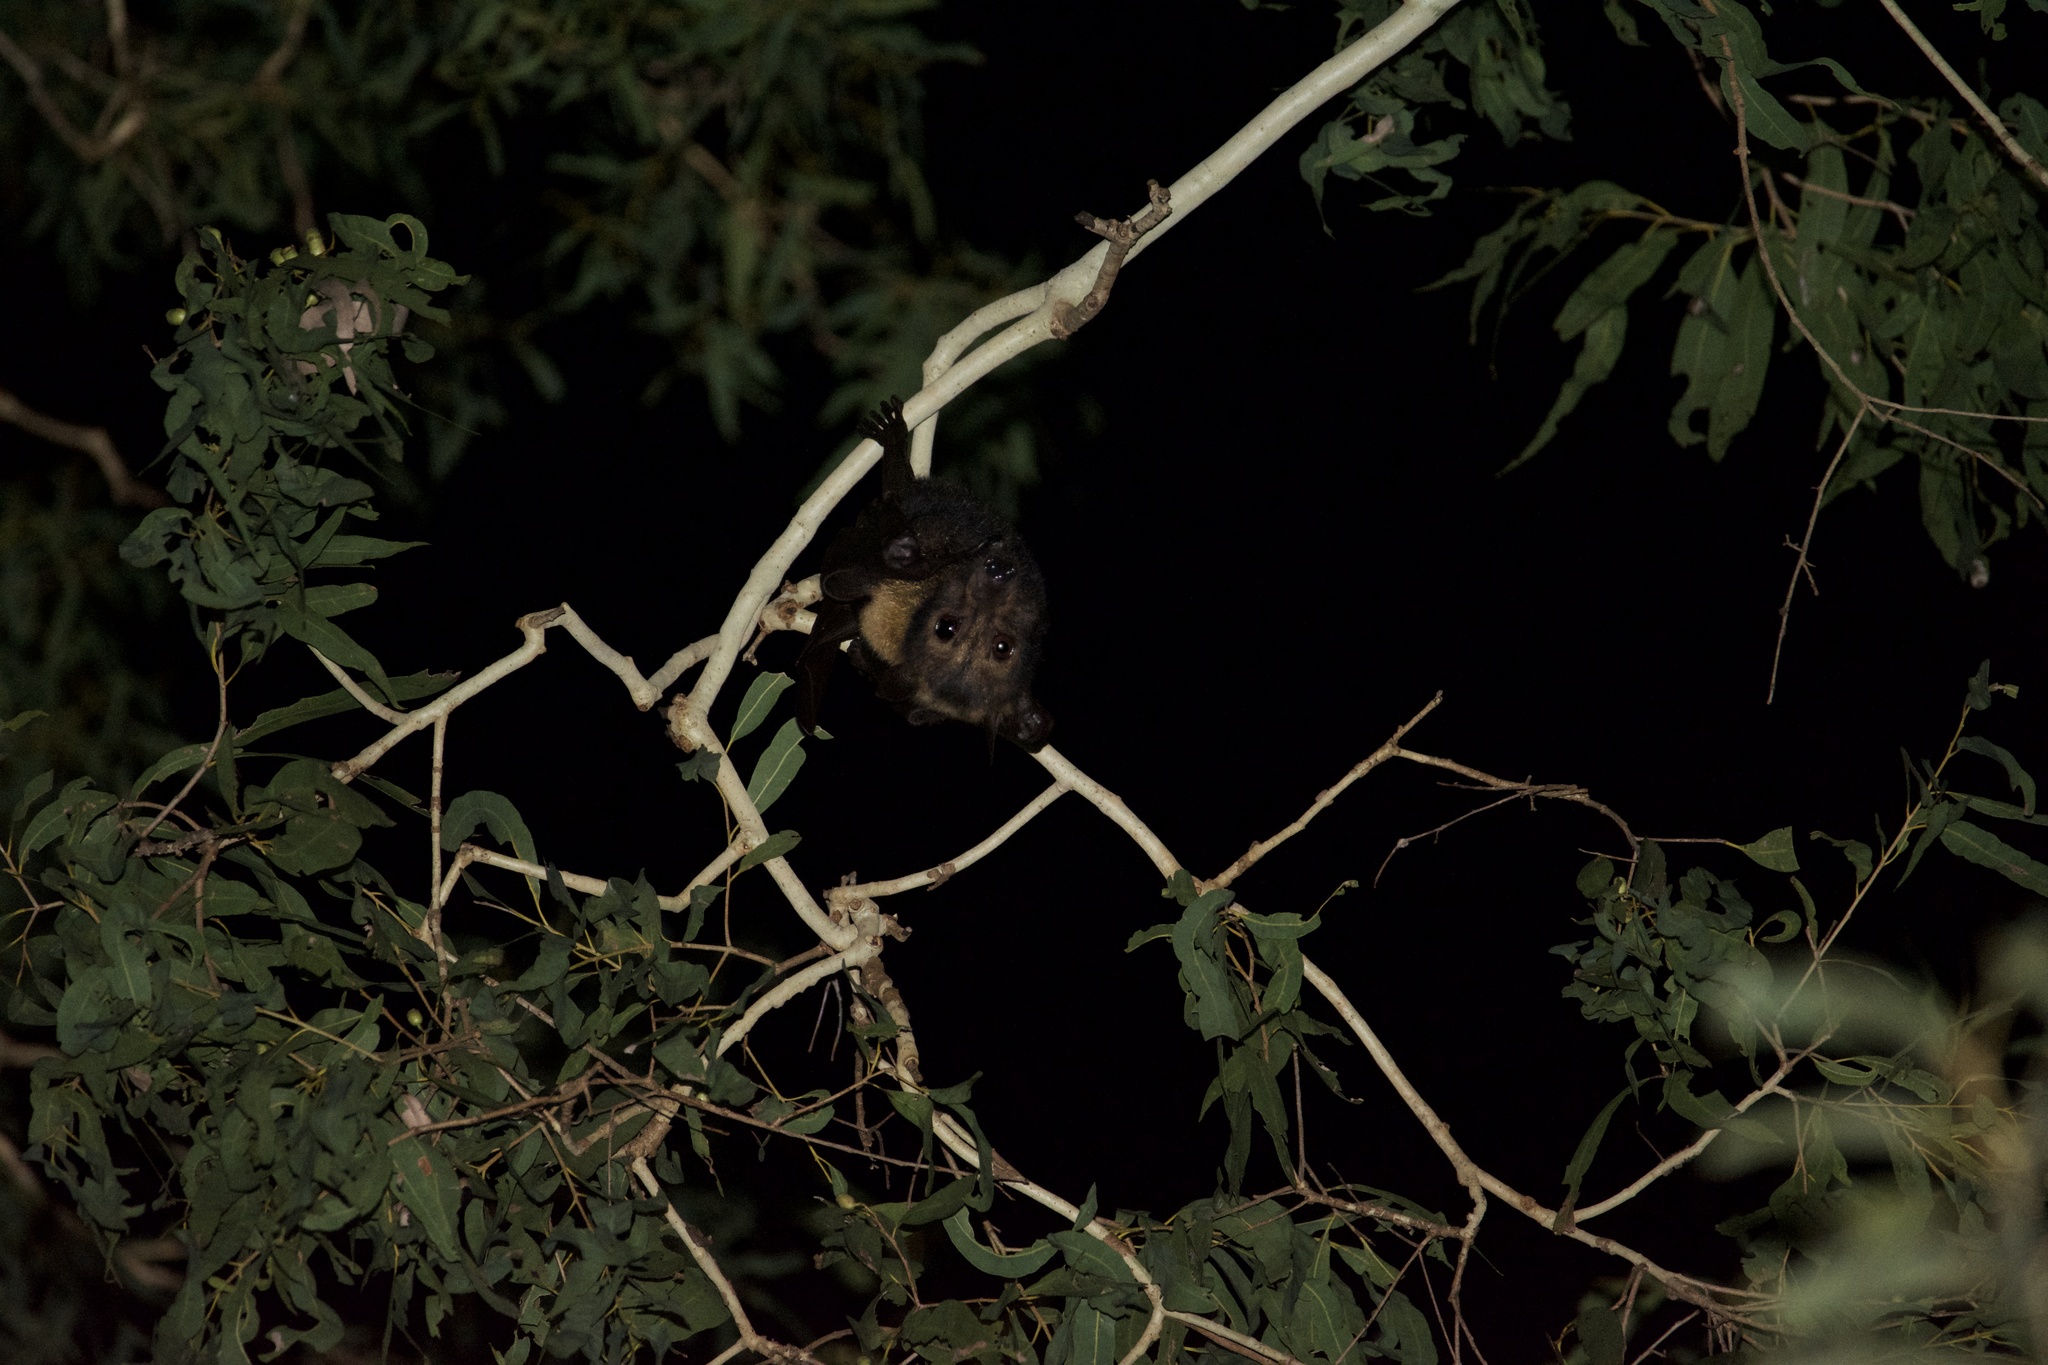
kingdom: Animalia
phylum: Chordata
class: Mammalia
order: Chiroptera
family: Pteropodidae
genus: Pteropus
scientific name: Pteropus conspicillatus
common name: Spectacled flying fox
